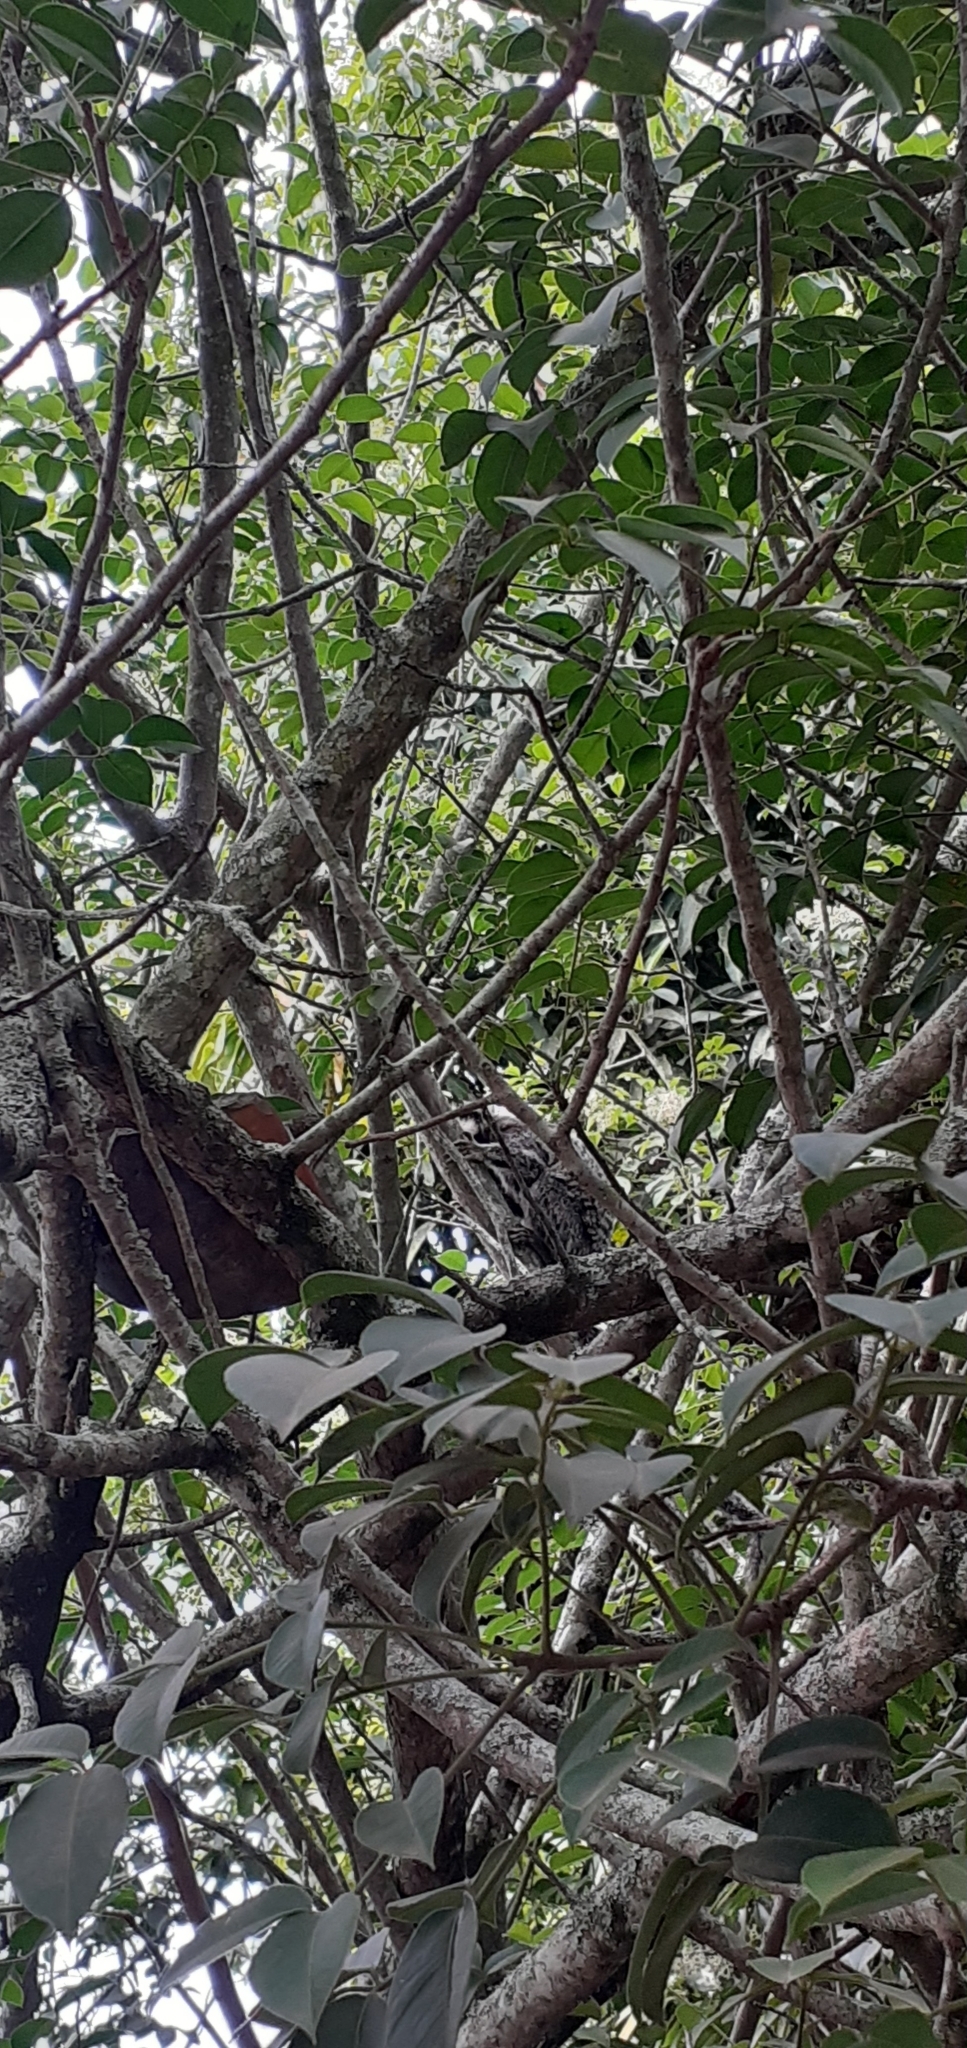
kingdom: Animalia
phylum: Chordata
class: Mammalia
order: Primates
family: Callitrichidae
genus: Callithrix
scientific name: Callithrix jacchus
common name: Common marmoset
